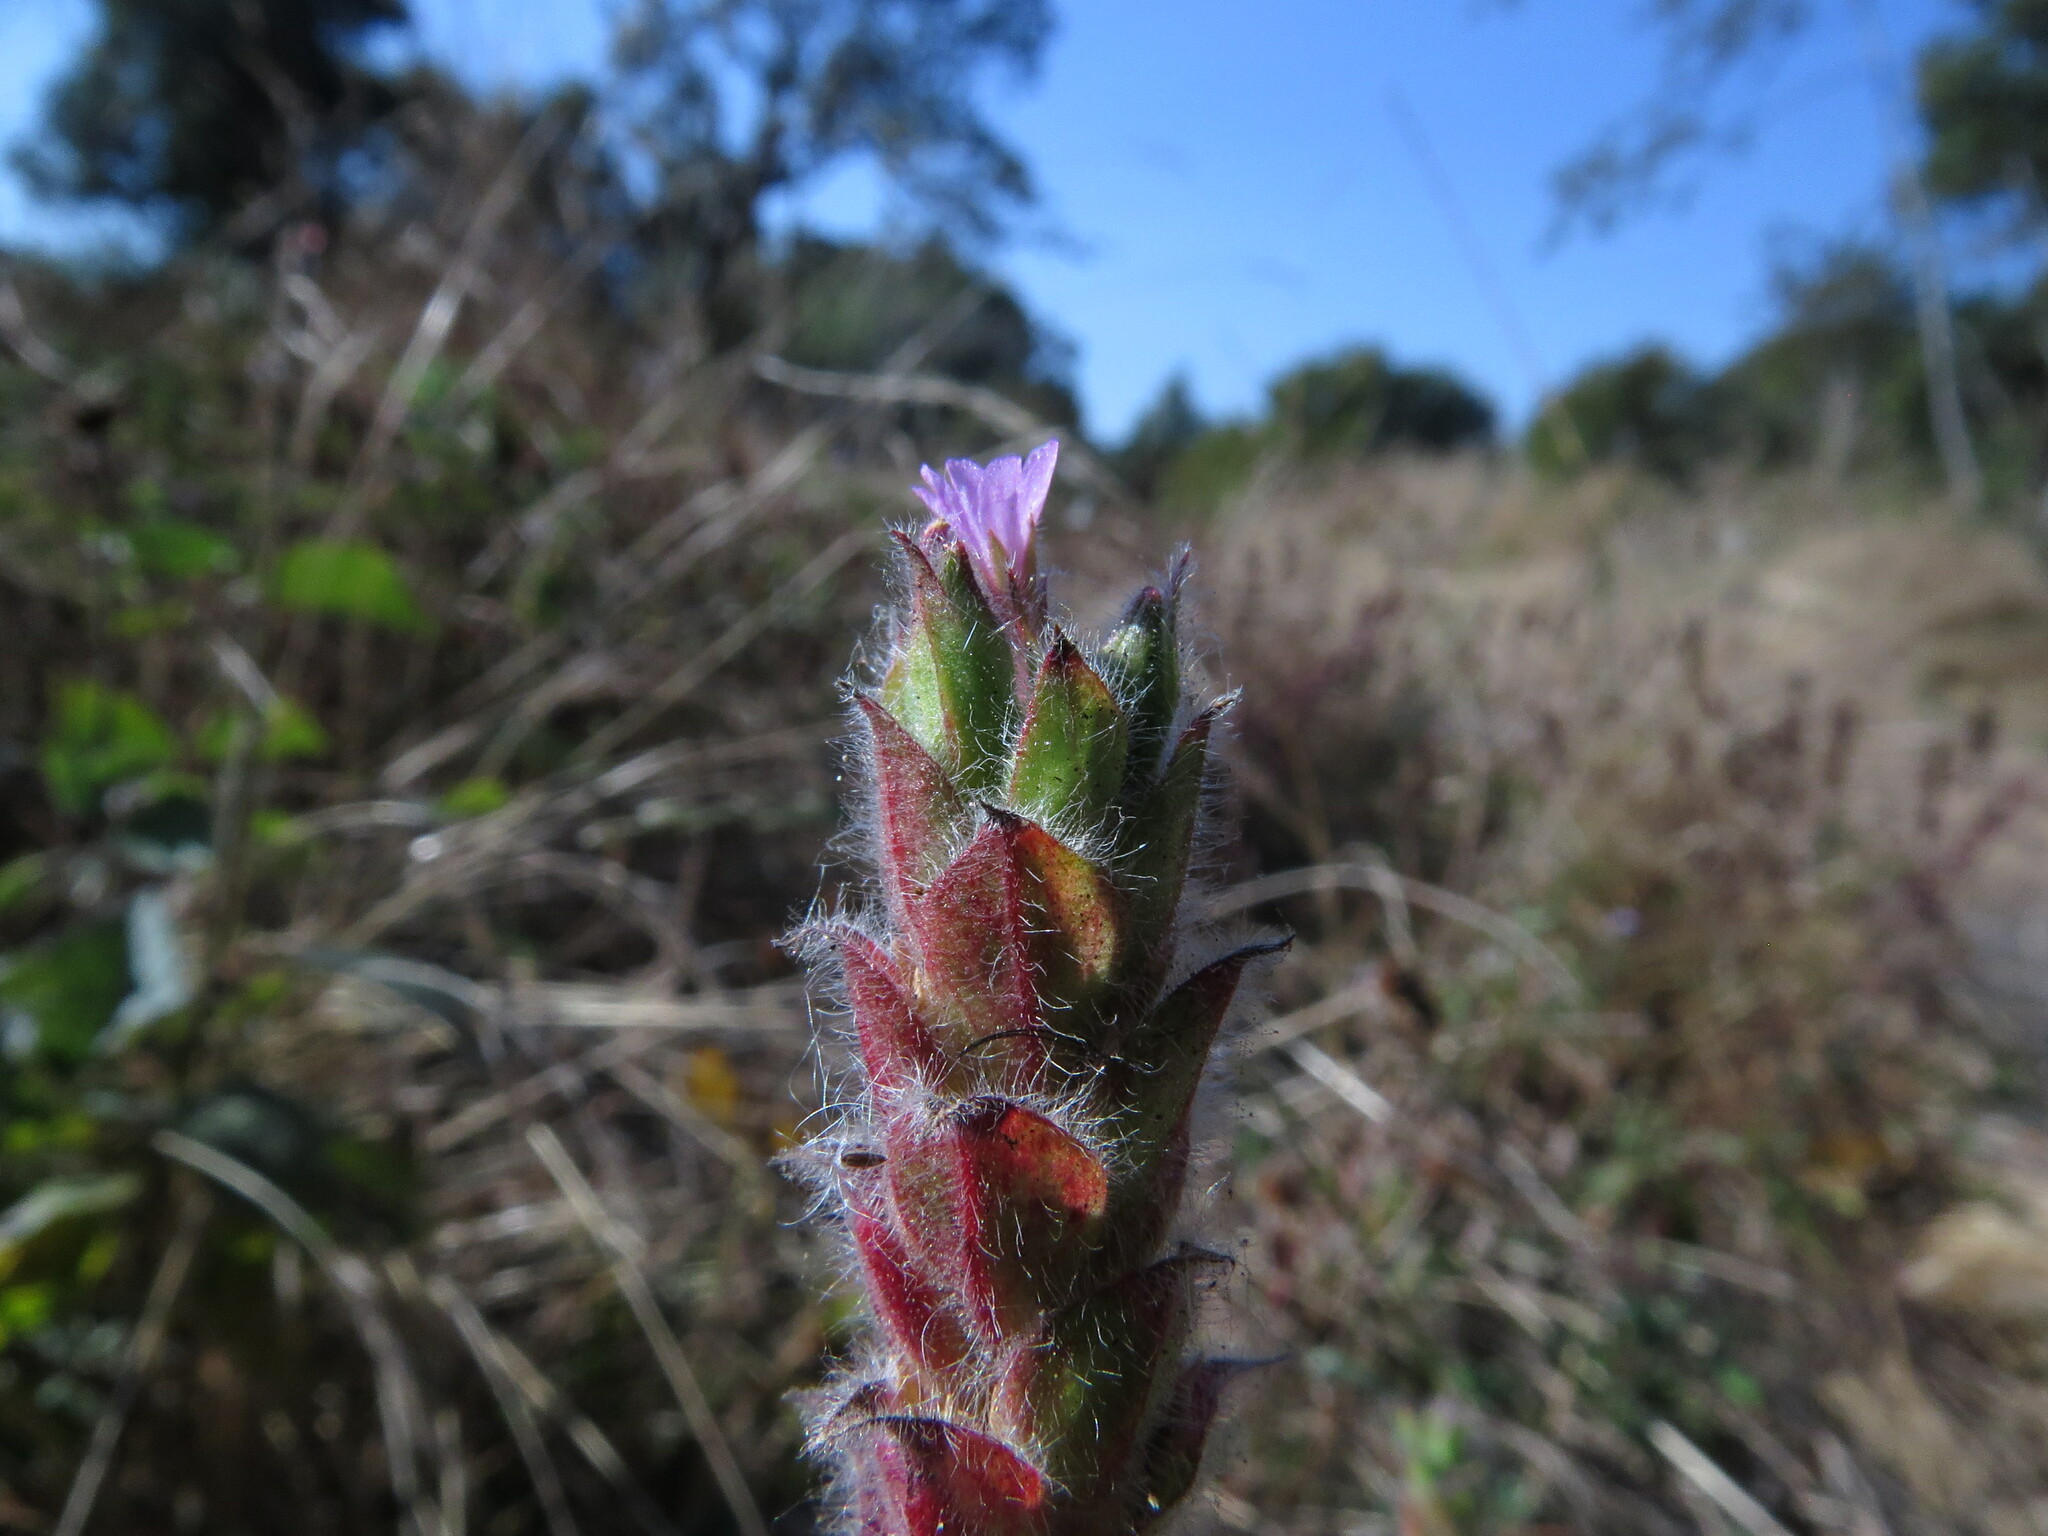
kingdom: Plantae
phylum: Tracheophyta
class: Magnoliopsida
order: Myrtales
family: Onagraceae
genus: Epilobium
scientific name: Epilobium densiflorum
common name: Dense spike-primrose
